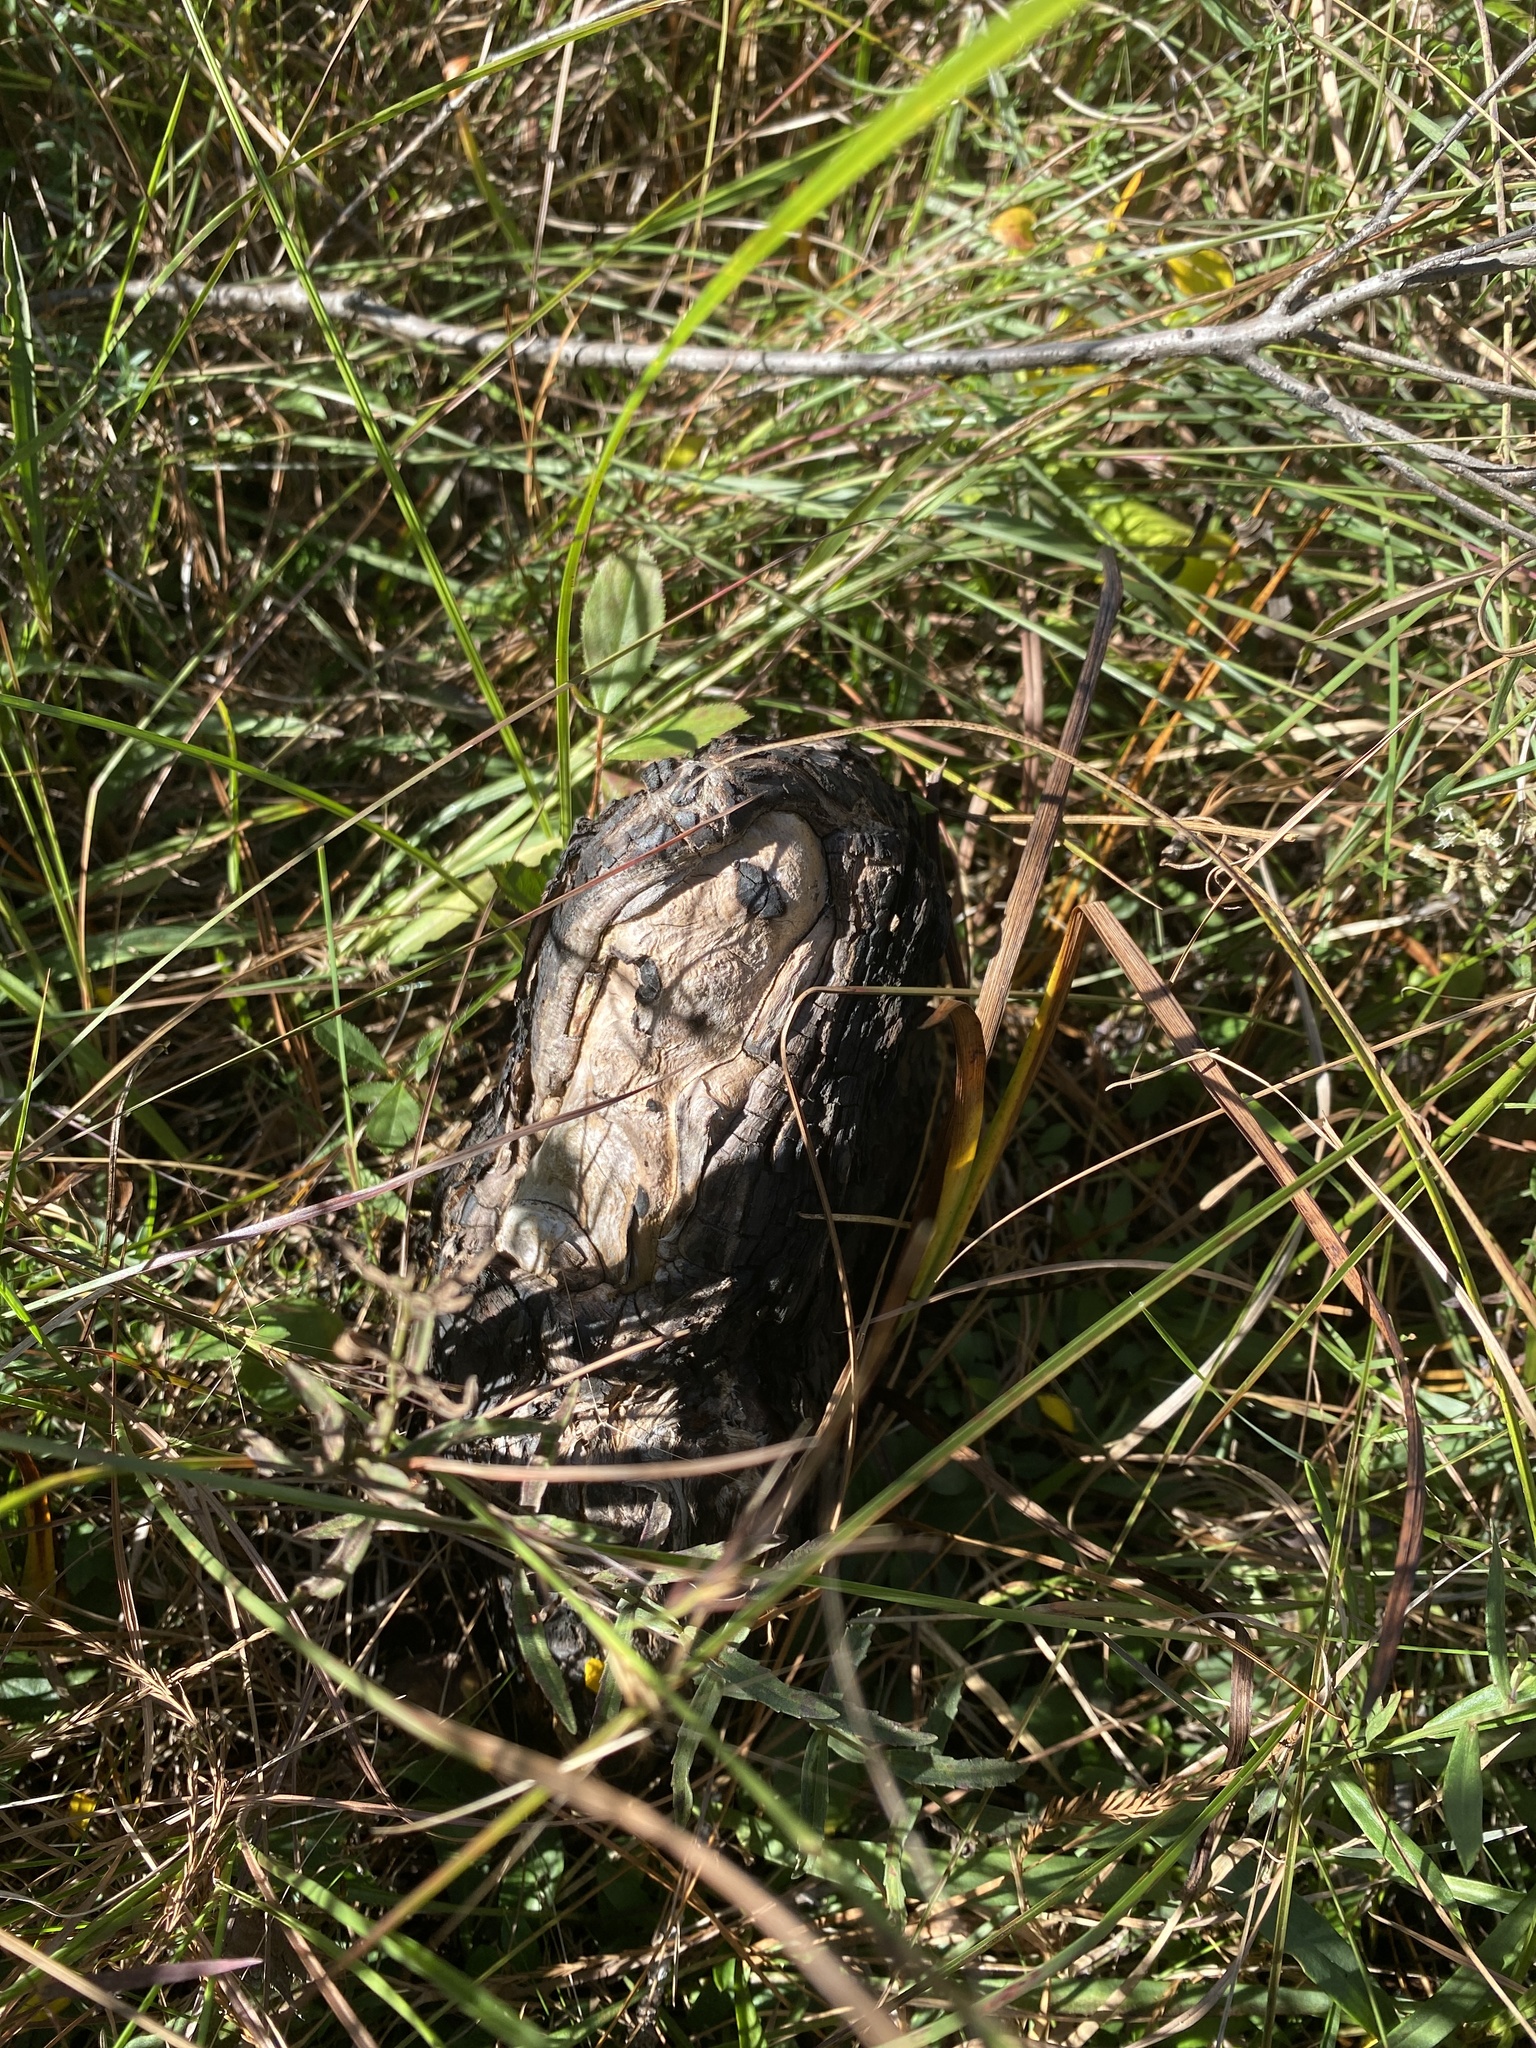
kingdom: Plantae
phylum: Tracheophyta
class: Pinopsida
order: Pinales
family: Cupressaceae
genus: Taxodium
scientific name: Taxodium distichum
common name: Bald cypress
